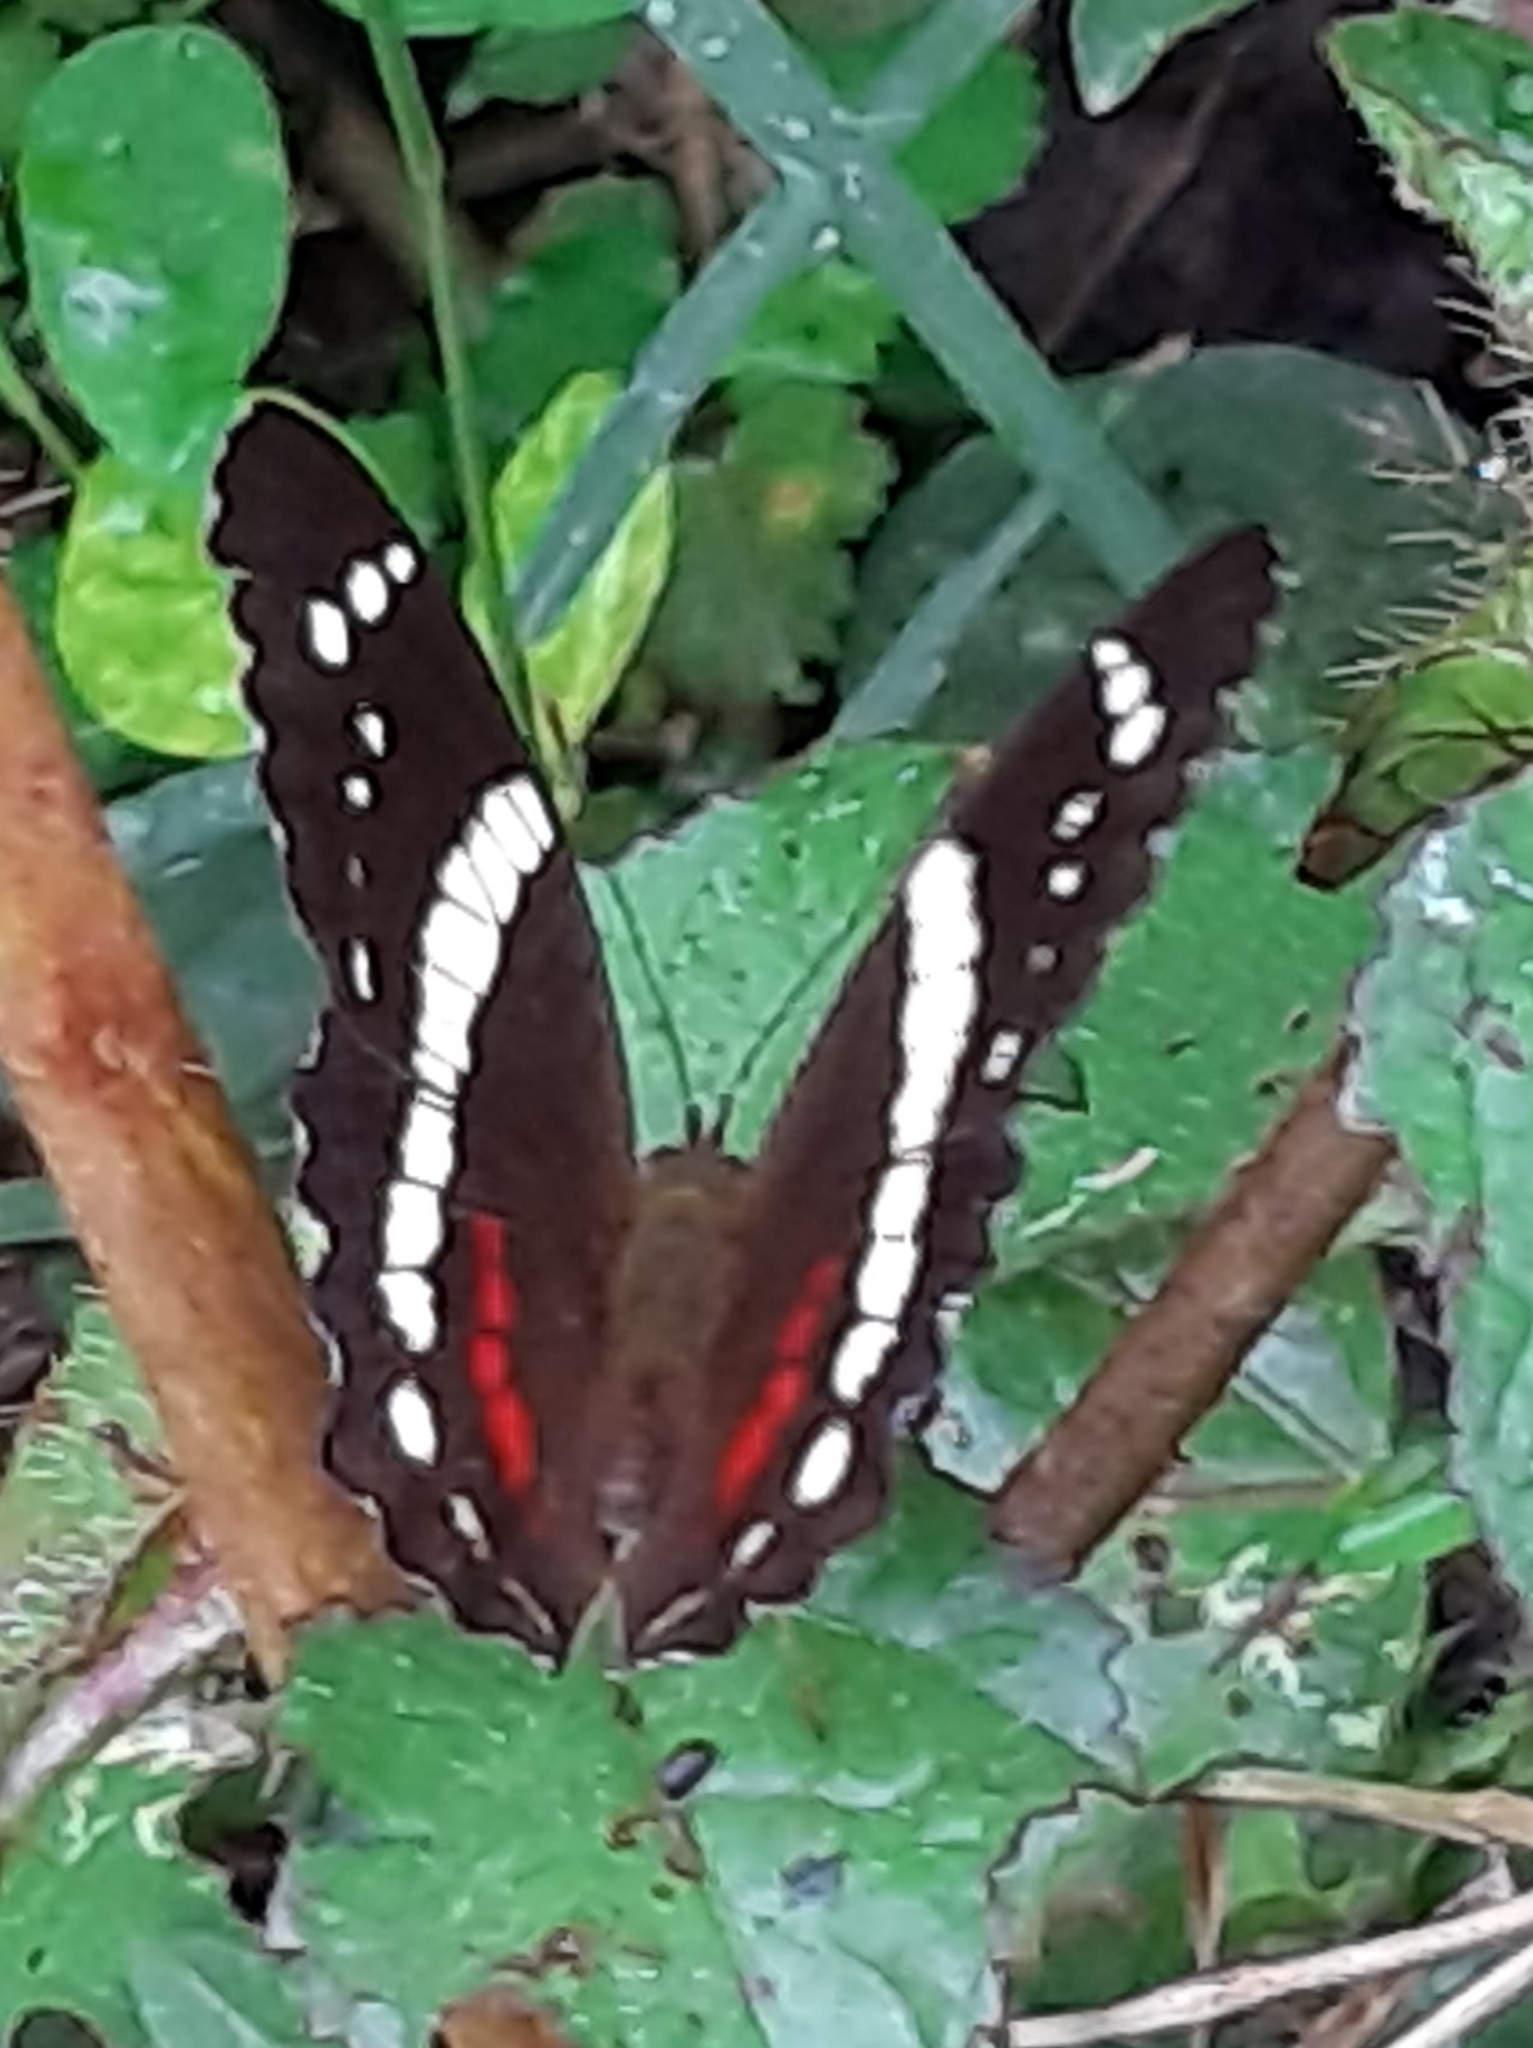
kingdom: Animalia
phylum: Arthropoda
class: Insecta
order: Lepidoptera
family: Nymphalidae
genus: Anartia
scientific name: Anartia fatima
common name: Banded peacock
